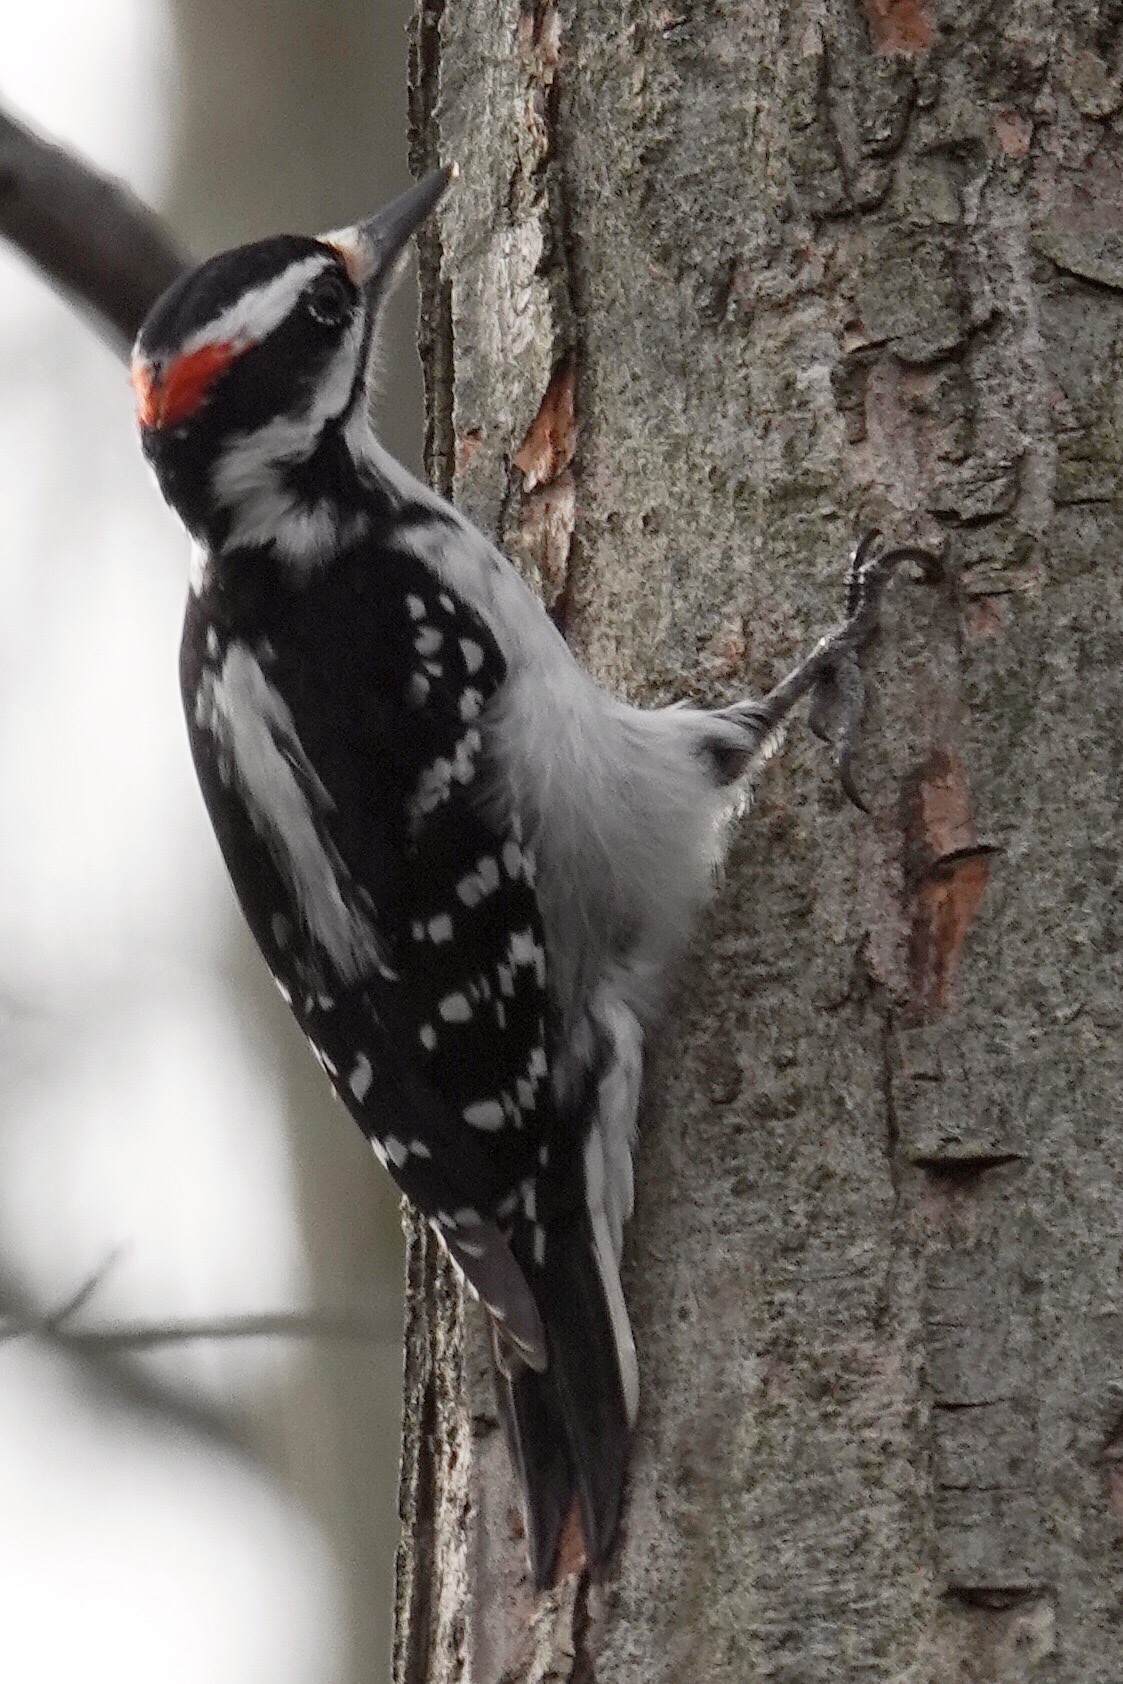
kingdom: Animalia
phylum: Chordata
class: Aves
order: Piciformes
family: Picidae
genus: Leuconotopicus
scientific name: Leuconotopicus villosus
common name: Hairy woodpecker
